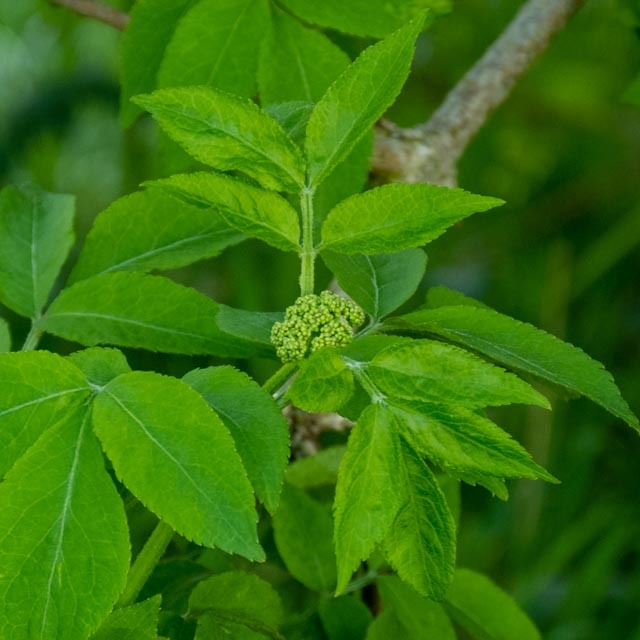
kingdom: Plantae
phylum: Tracheophyta
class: Magnoliopsida
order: Dipsacales
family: Viburnaceae
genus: Sambucus
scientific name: Sambucus nigra
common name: Elder
